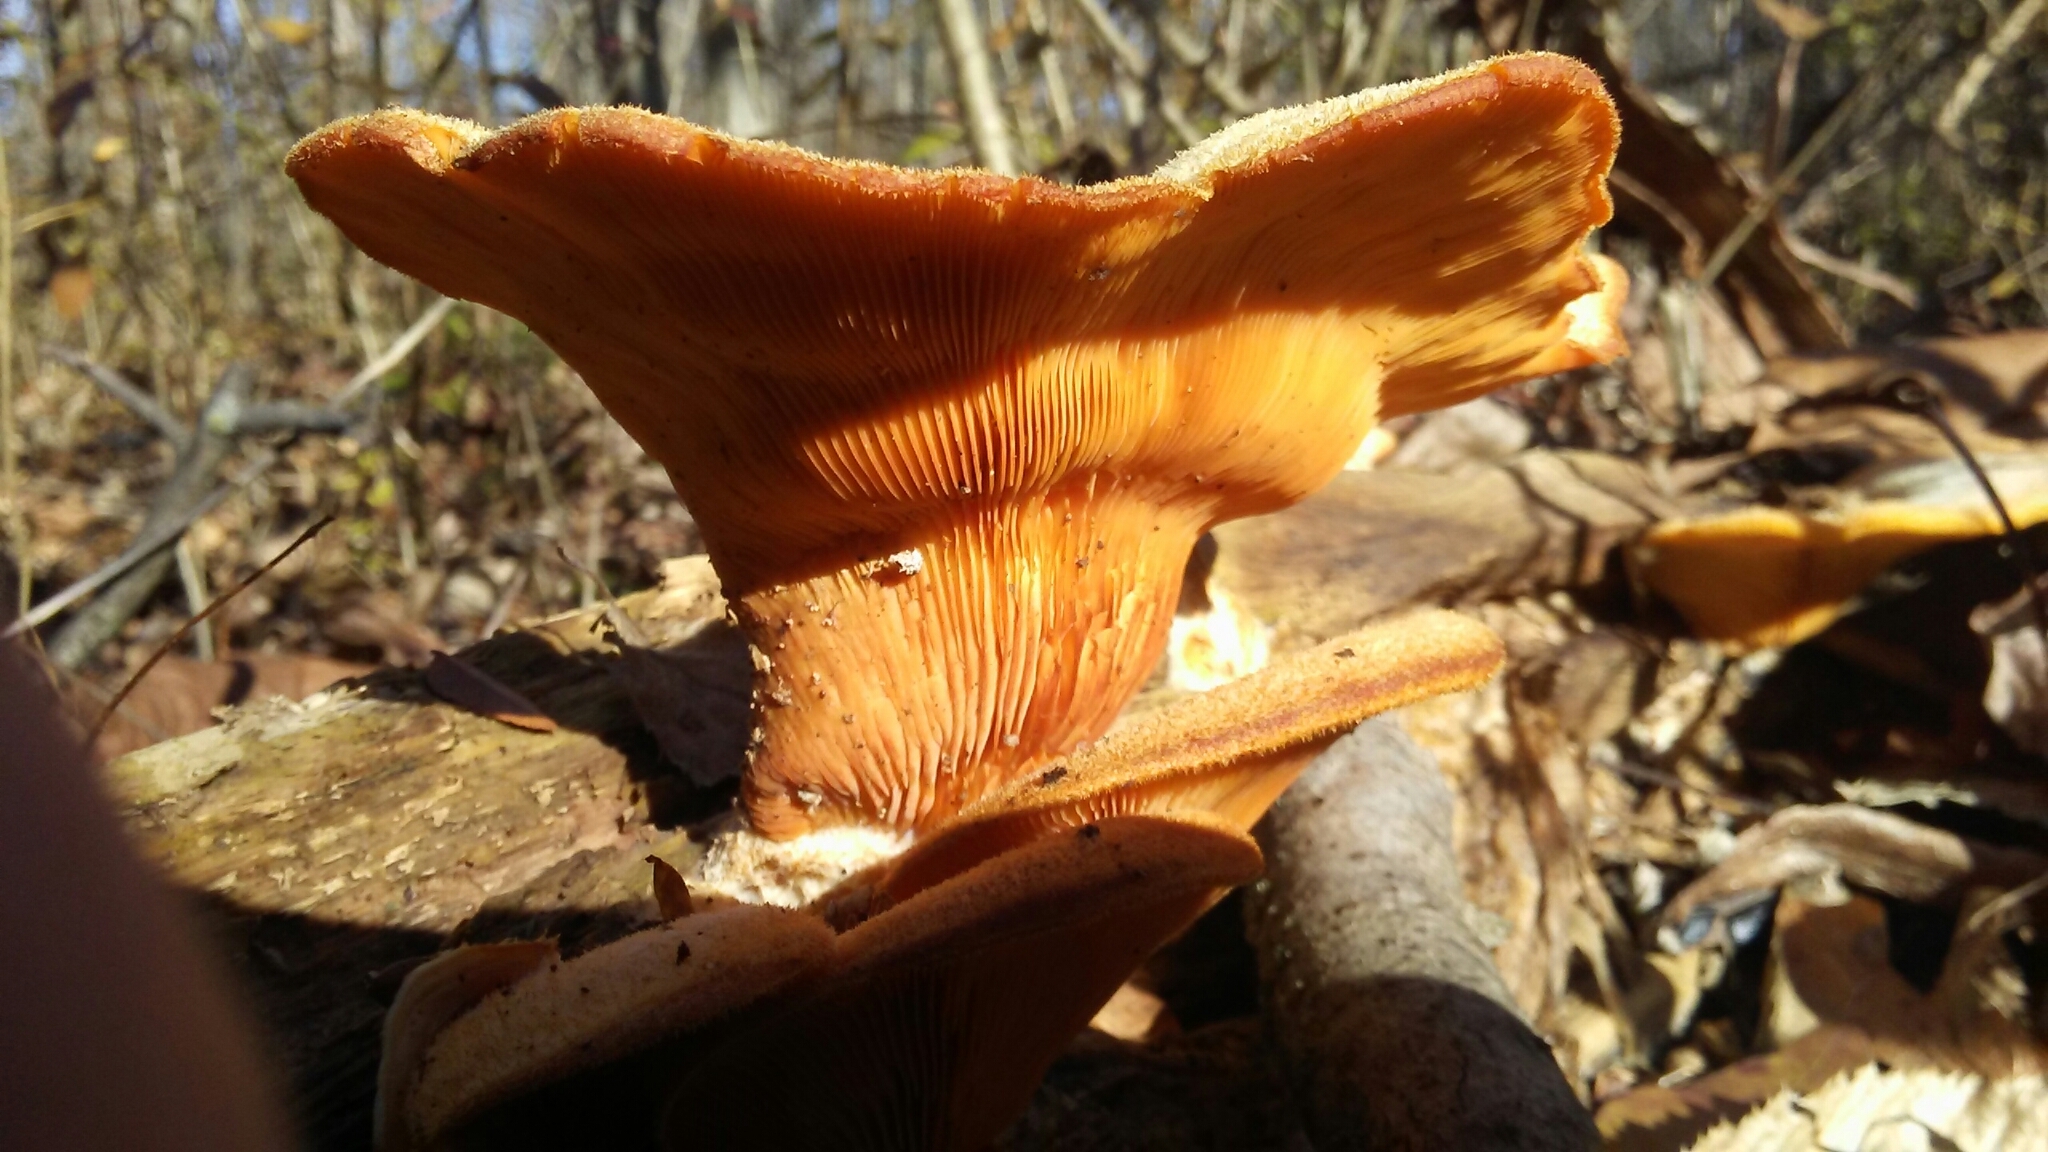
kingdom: Fungi
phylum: Basidiomycota
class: Agaricomycetes
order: Agaricales
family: Phyllotopsidaceae
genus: Phyllotopsis
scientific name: Phyllotopsis nidulans
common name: Orange mock oyster
